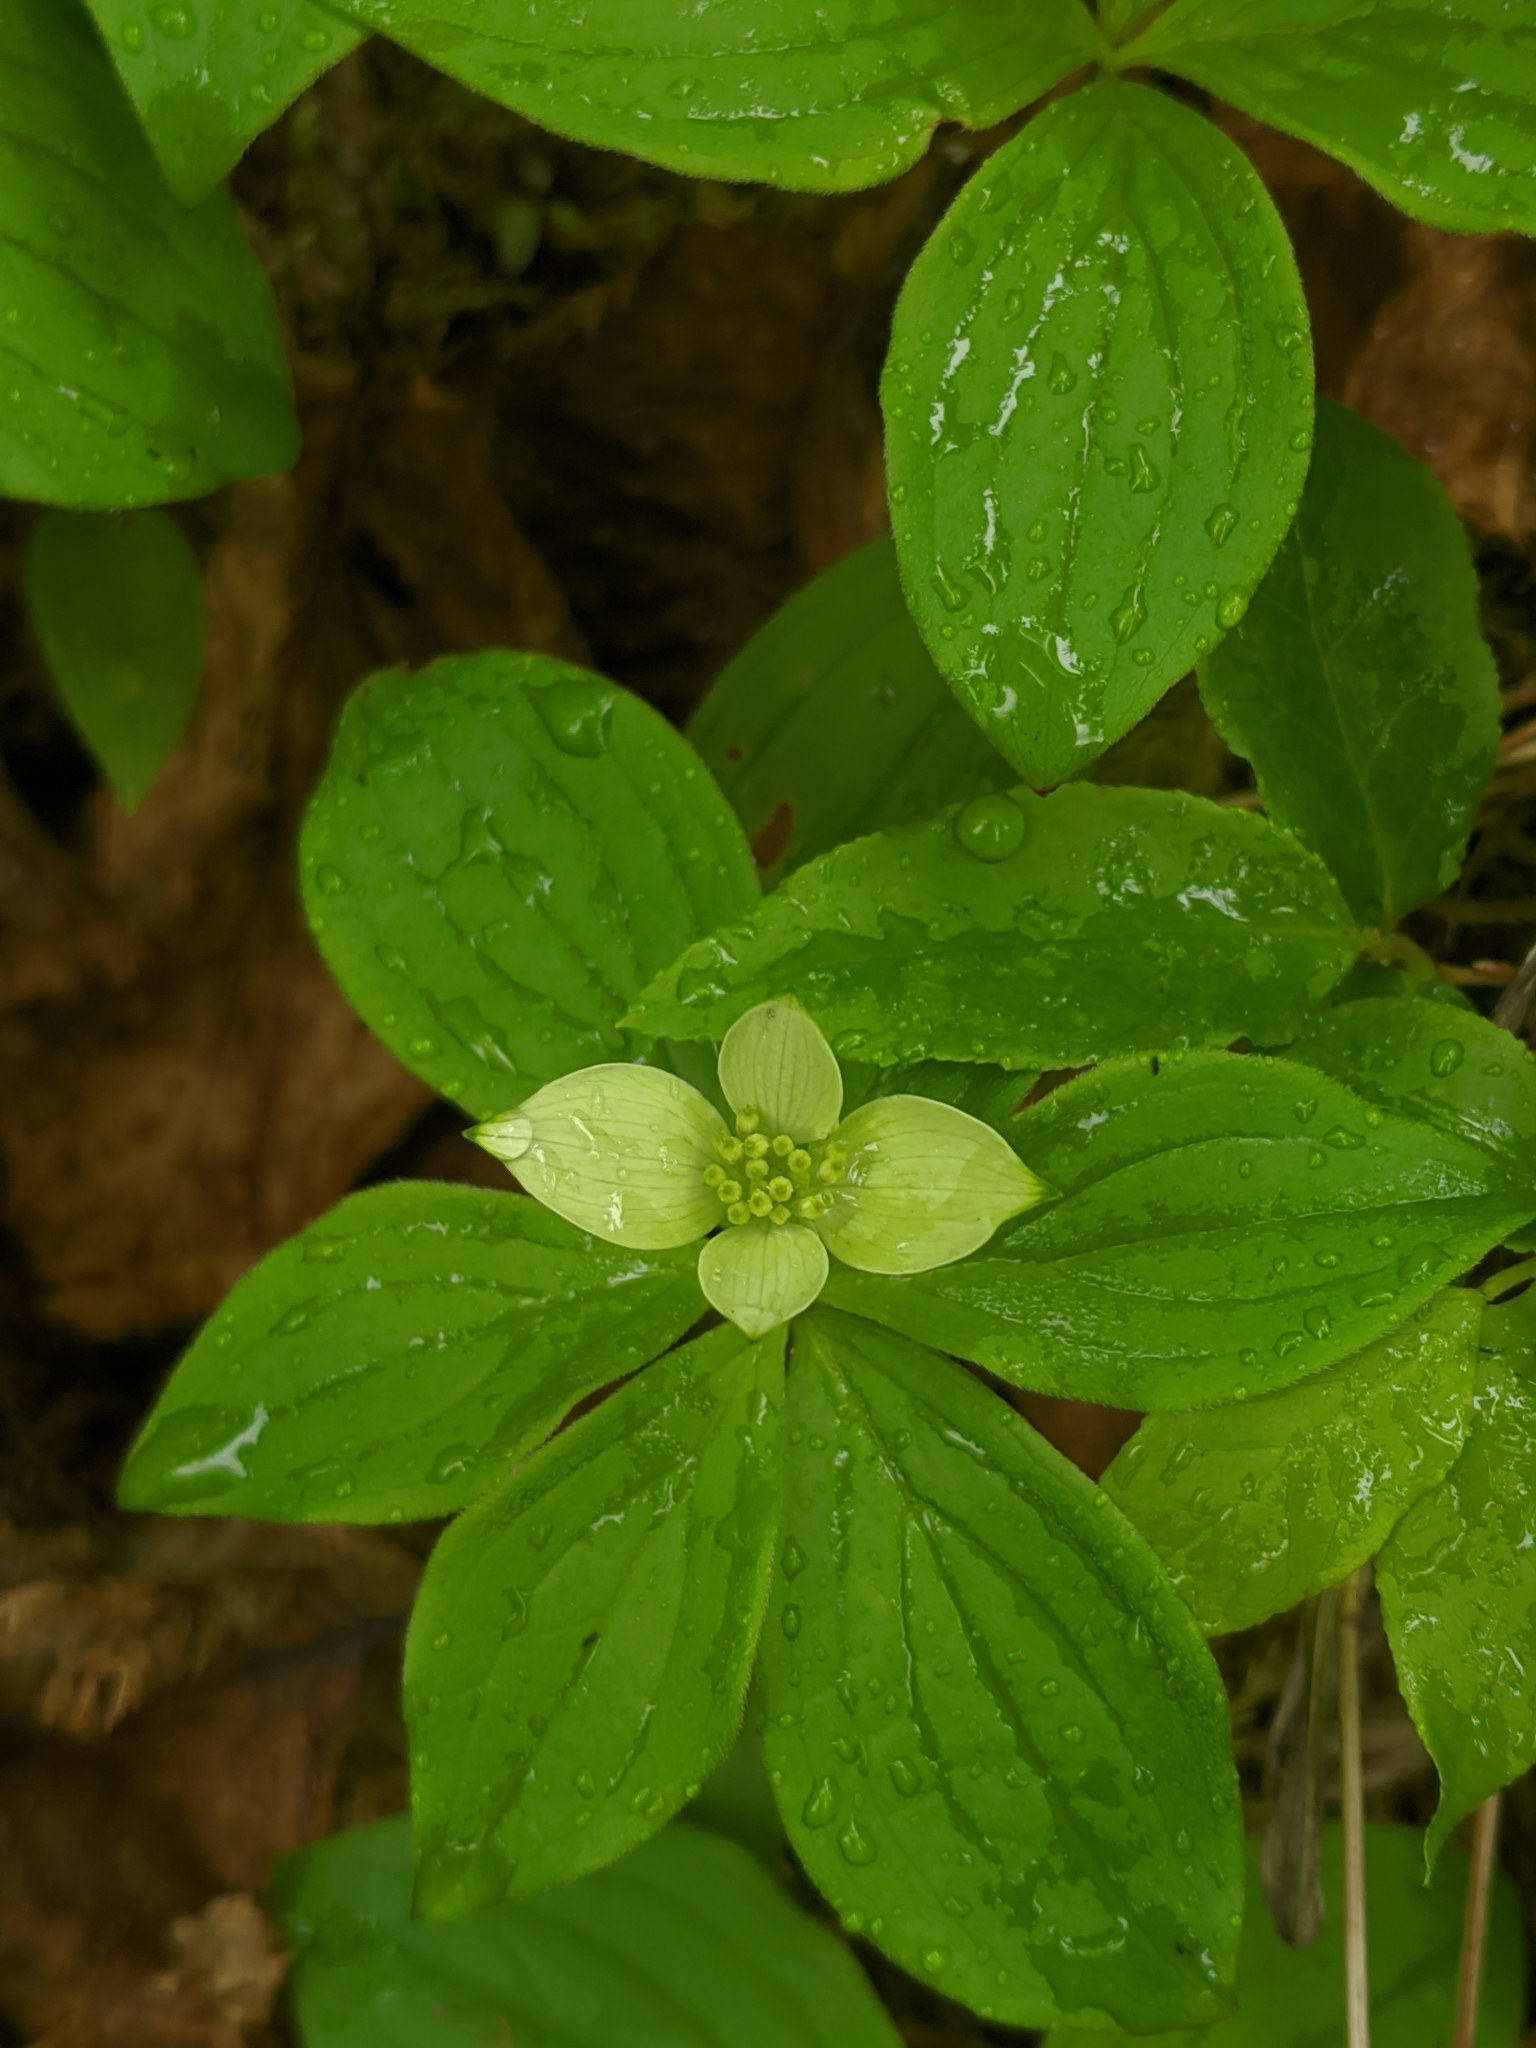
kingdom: Plantae
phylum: Tracheophyta
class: Magnoliopsida
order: Cornales
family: Cornaceae
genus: Cornus
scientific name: Cornus canadensis
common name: Creeping dogwood
